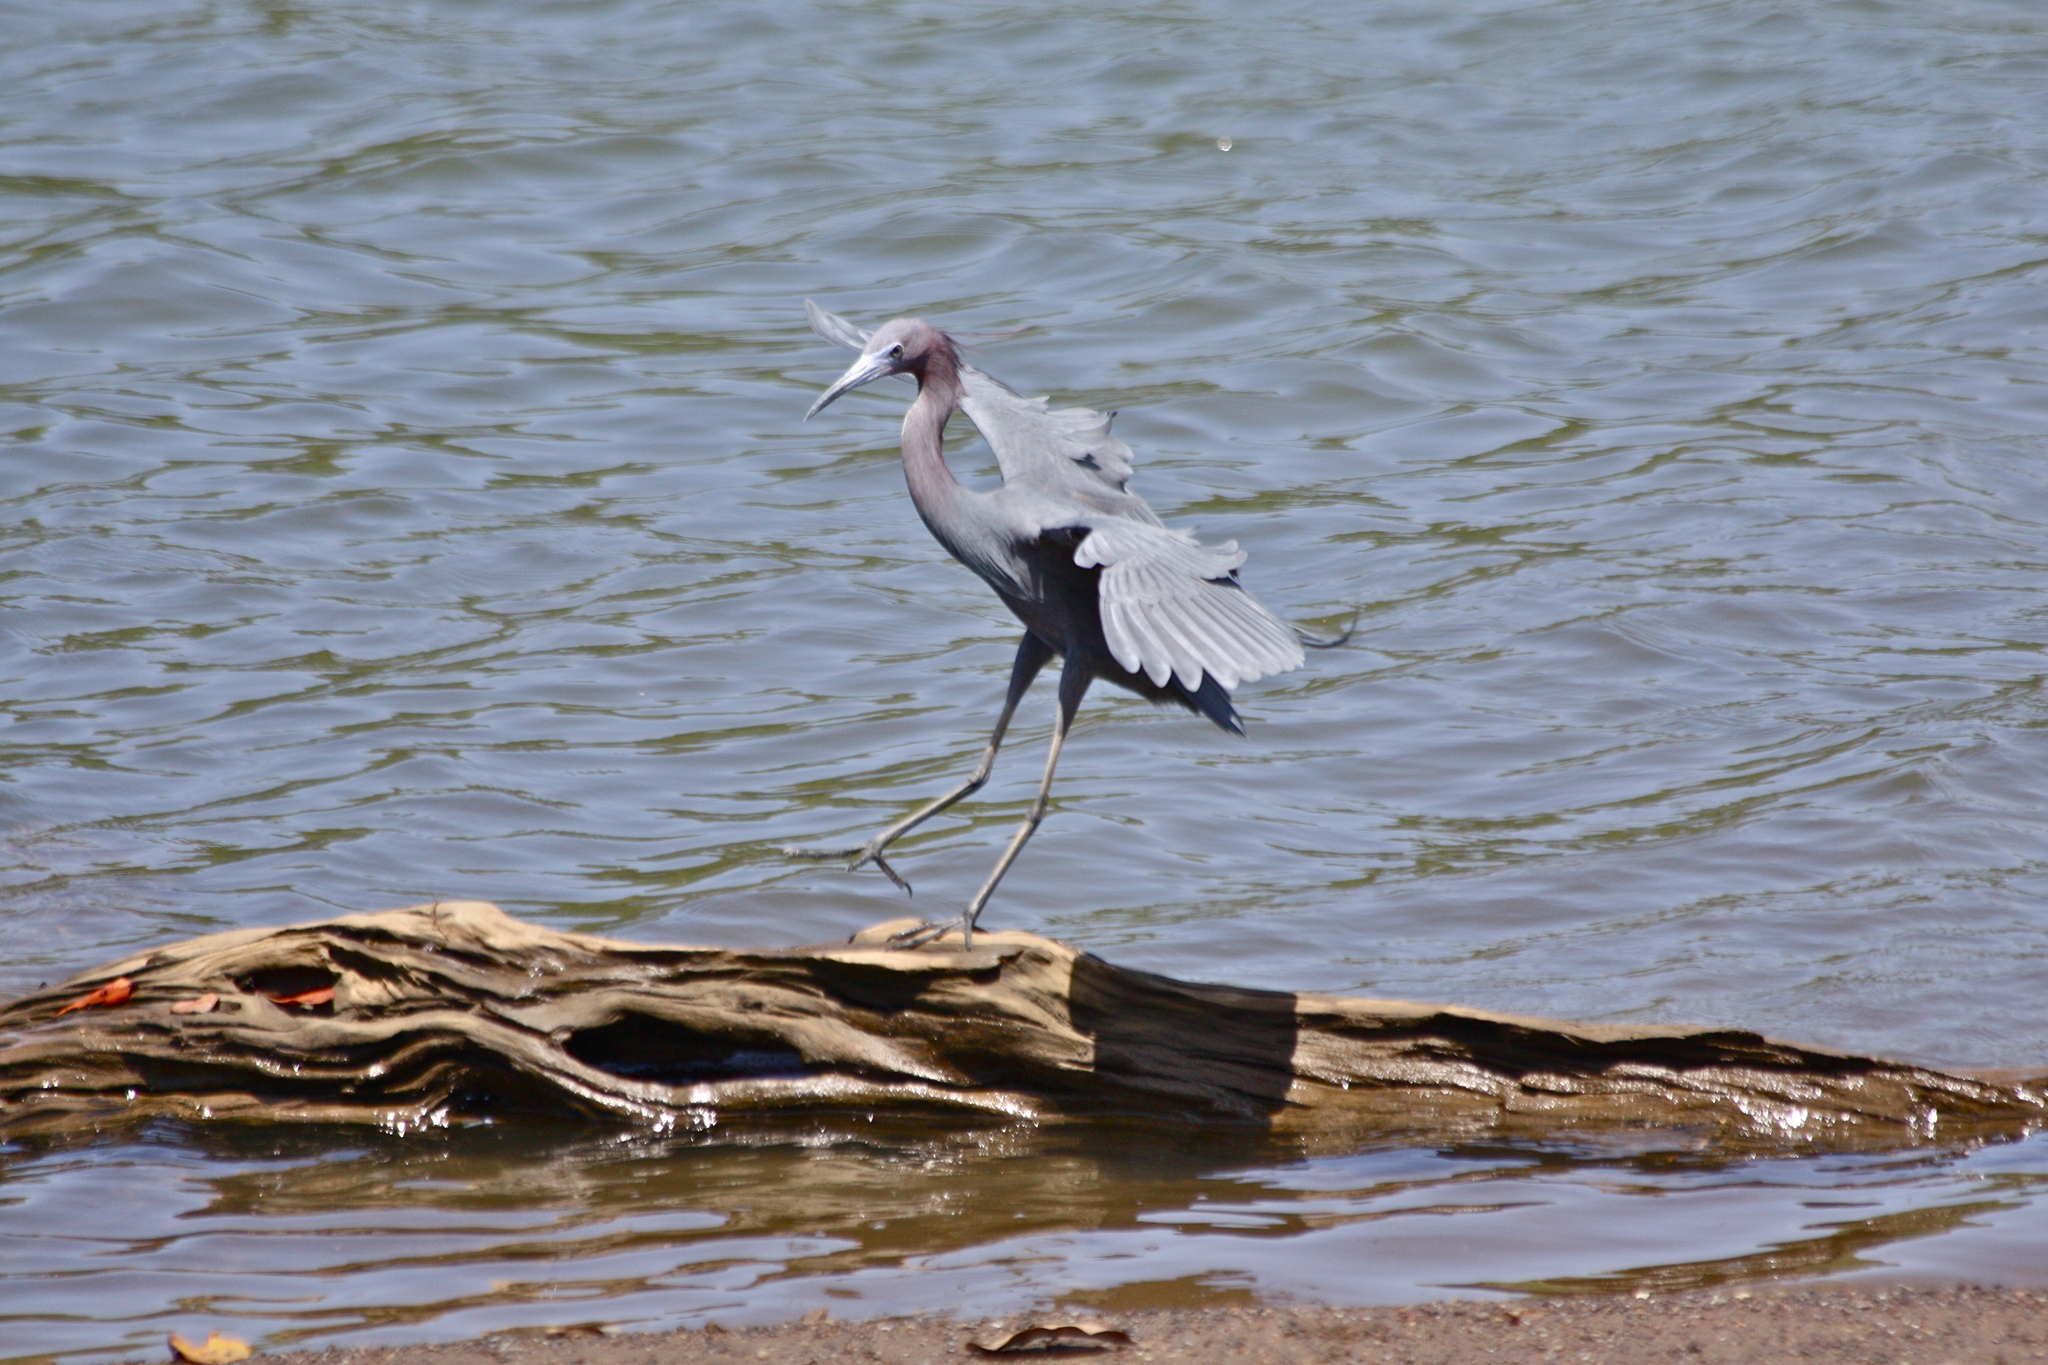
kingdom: Animalia
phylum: Chordata
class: Aves
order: Pelecaniformes
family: Ardeidae
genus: Egretta
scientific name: Egretta caerulea
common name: Little blue heron
